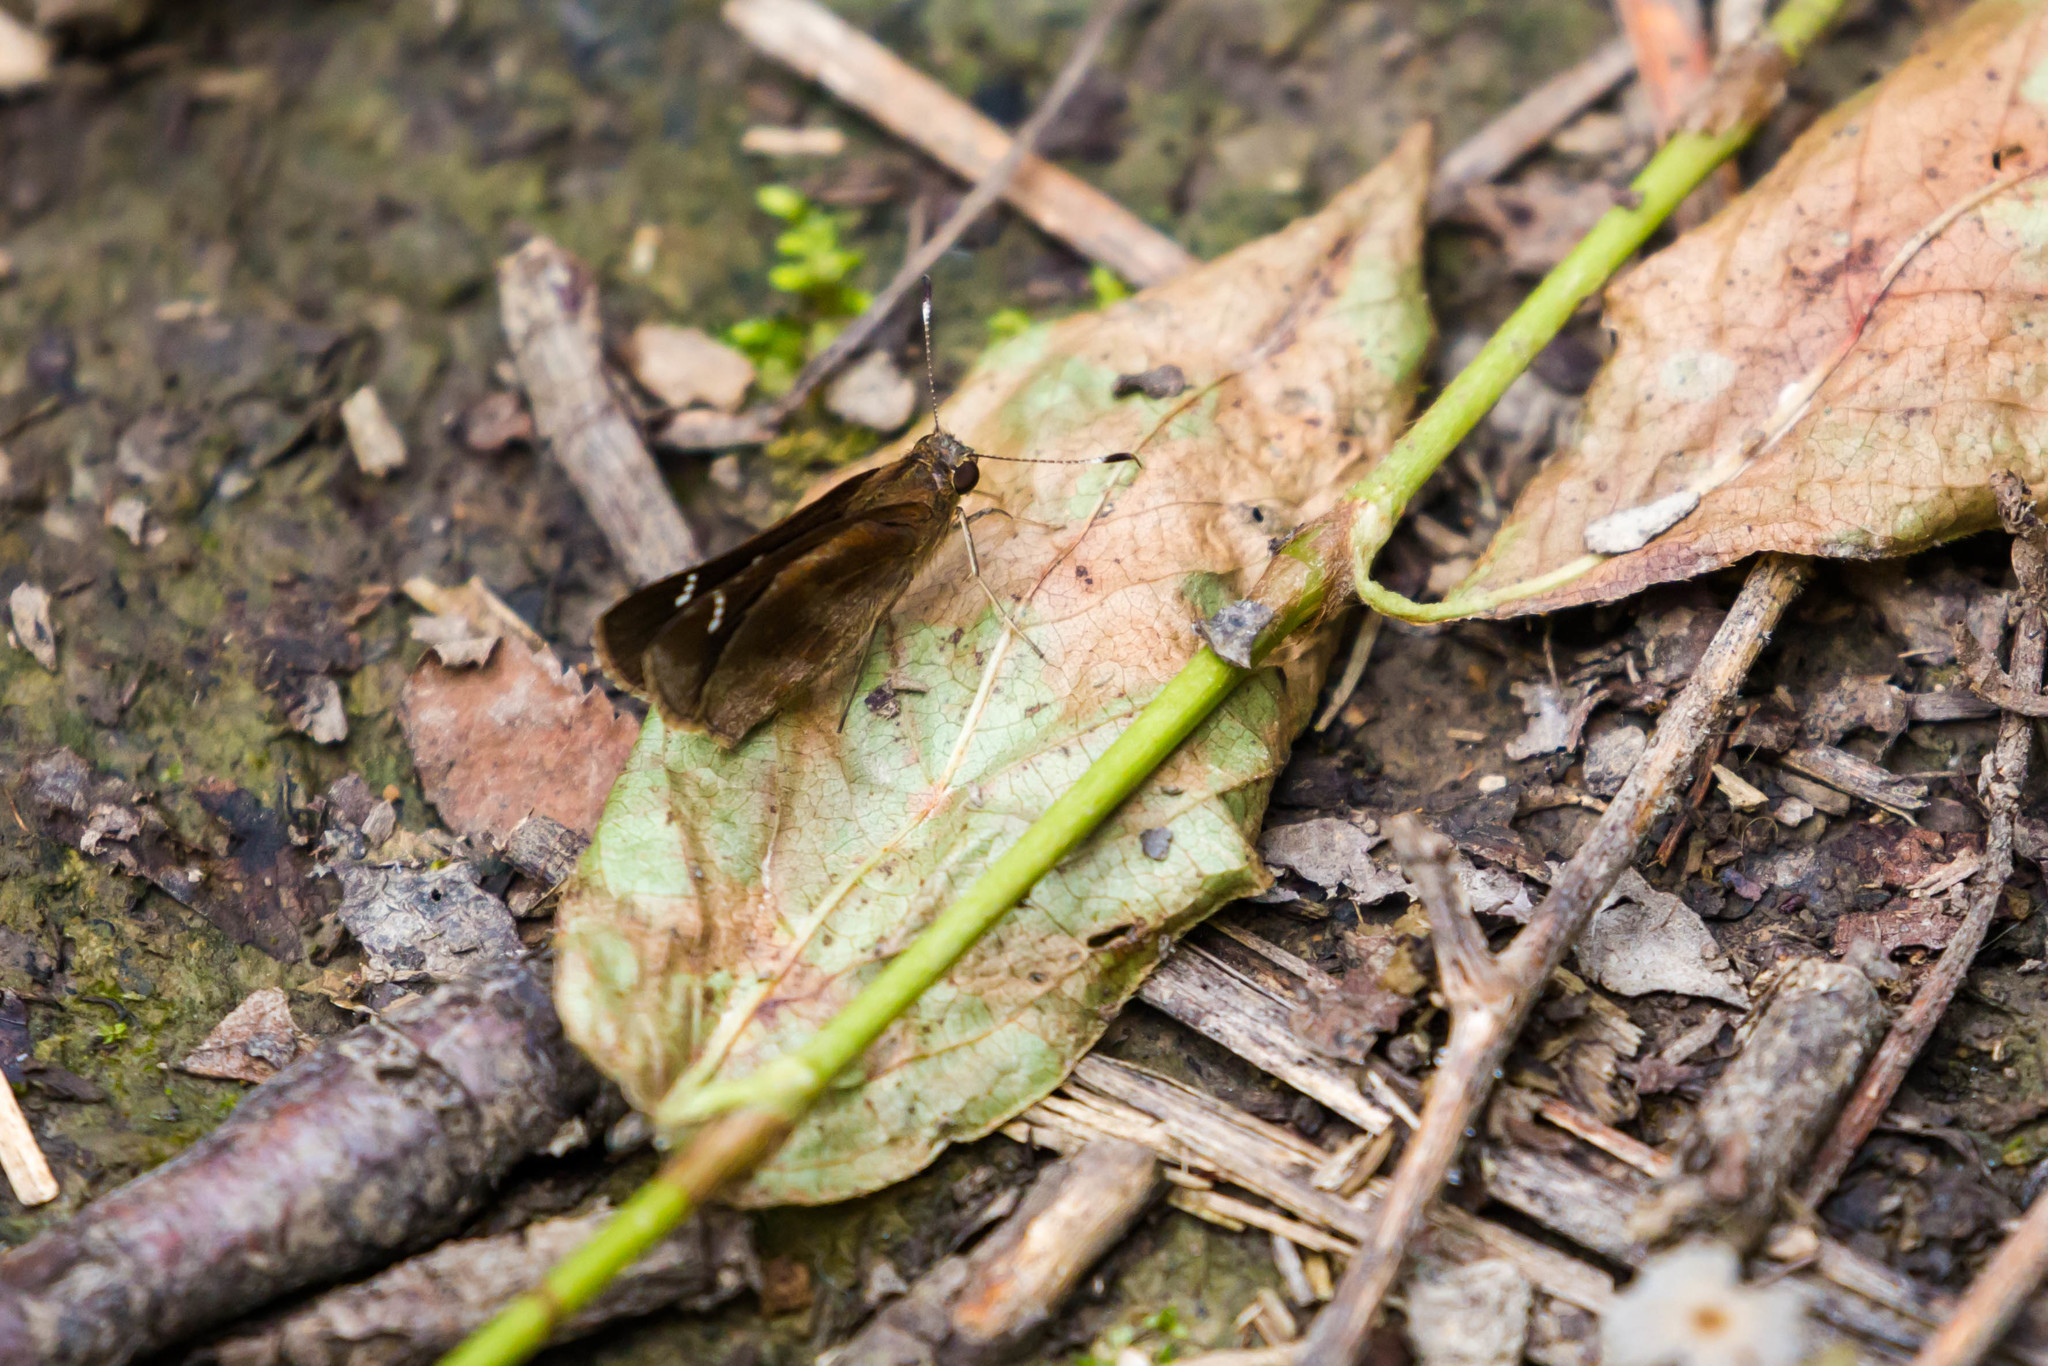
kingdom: Animalia
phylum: Arthropoda
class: Insecta
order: Lepidoptera
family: Hesperiidae
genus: Lerema
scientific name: Lerema accius
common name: Clouded skipper
